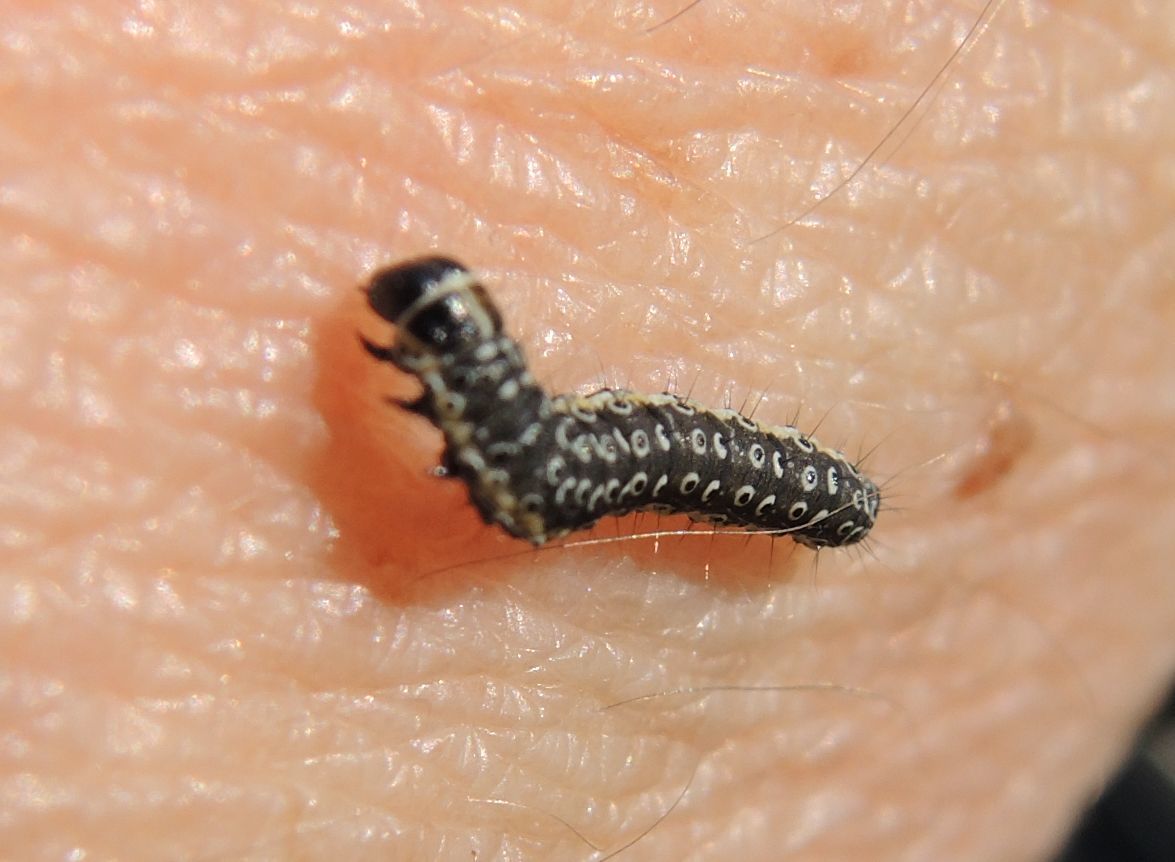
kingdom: Animalia
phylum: Arthropoda
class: Insecta
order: Lepidoptera
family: Depressariidae
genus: Depressaria
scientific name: Depressaria apiella
